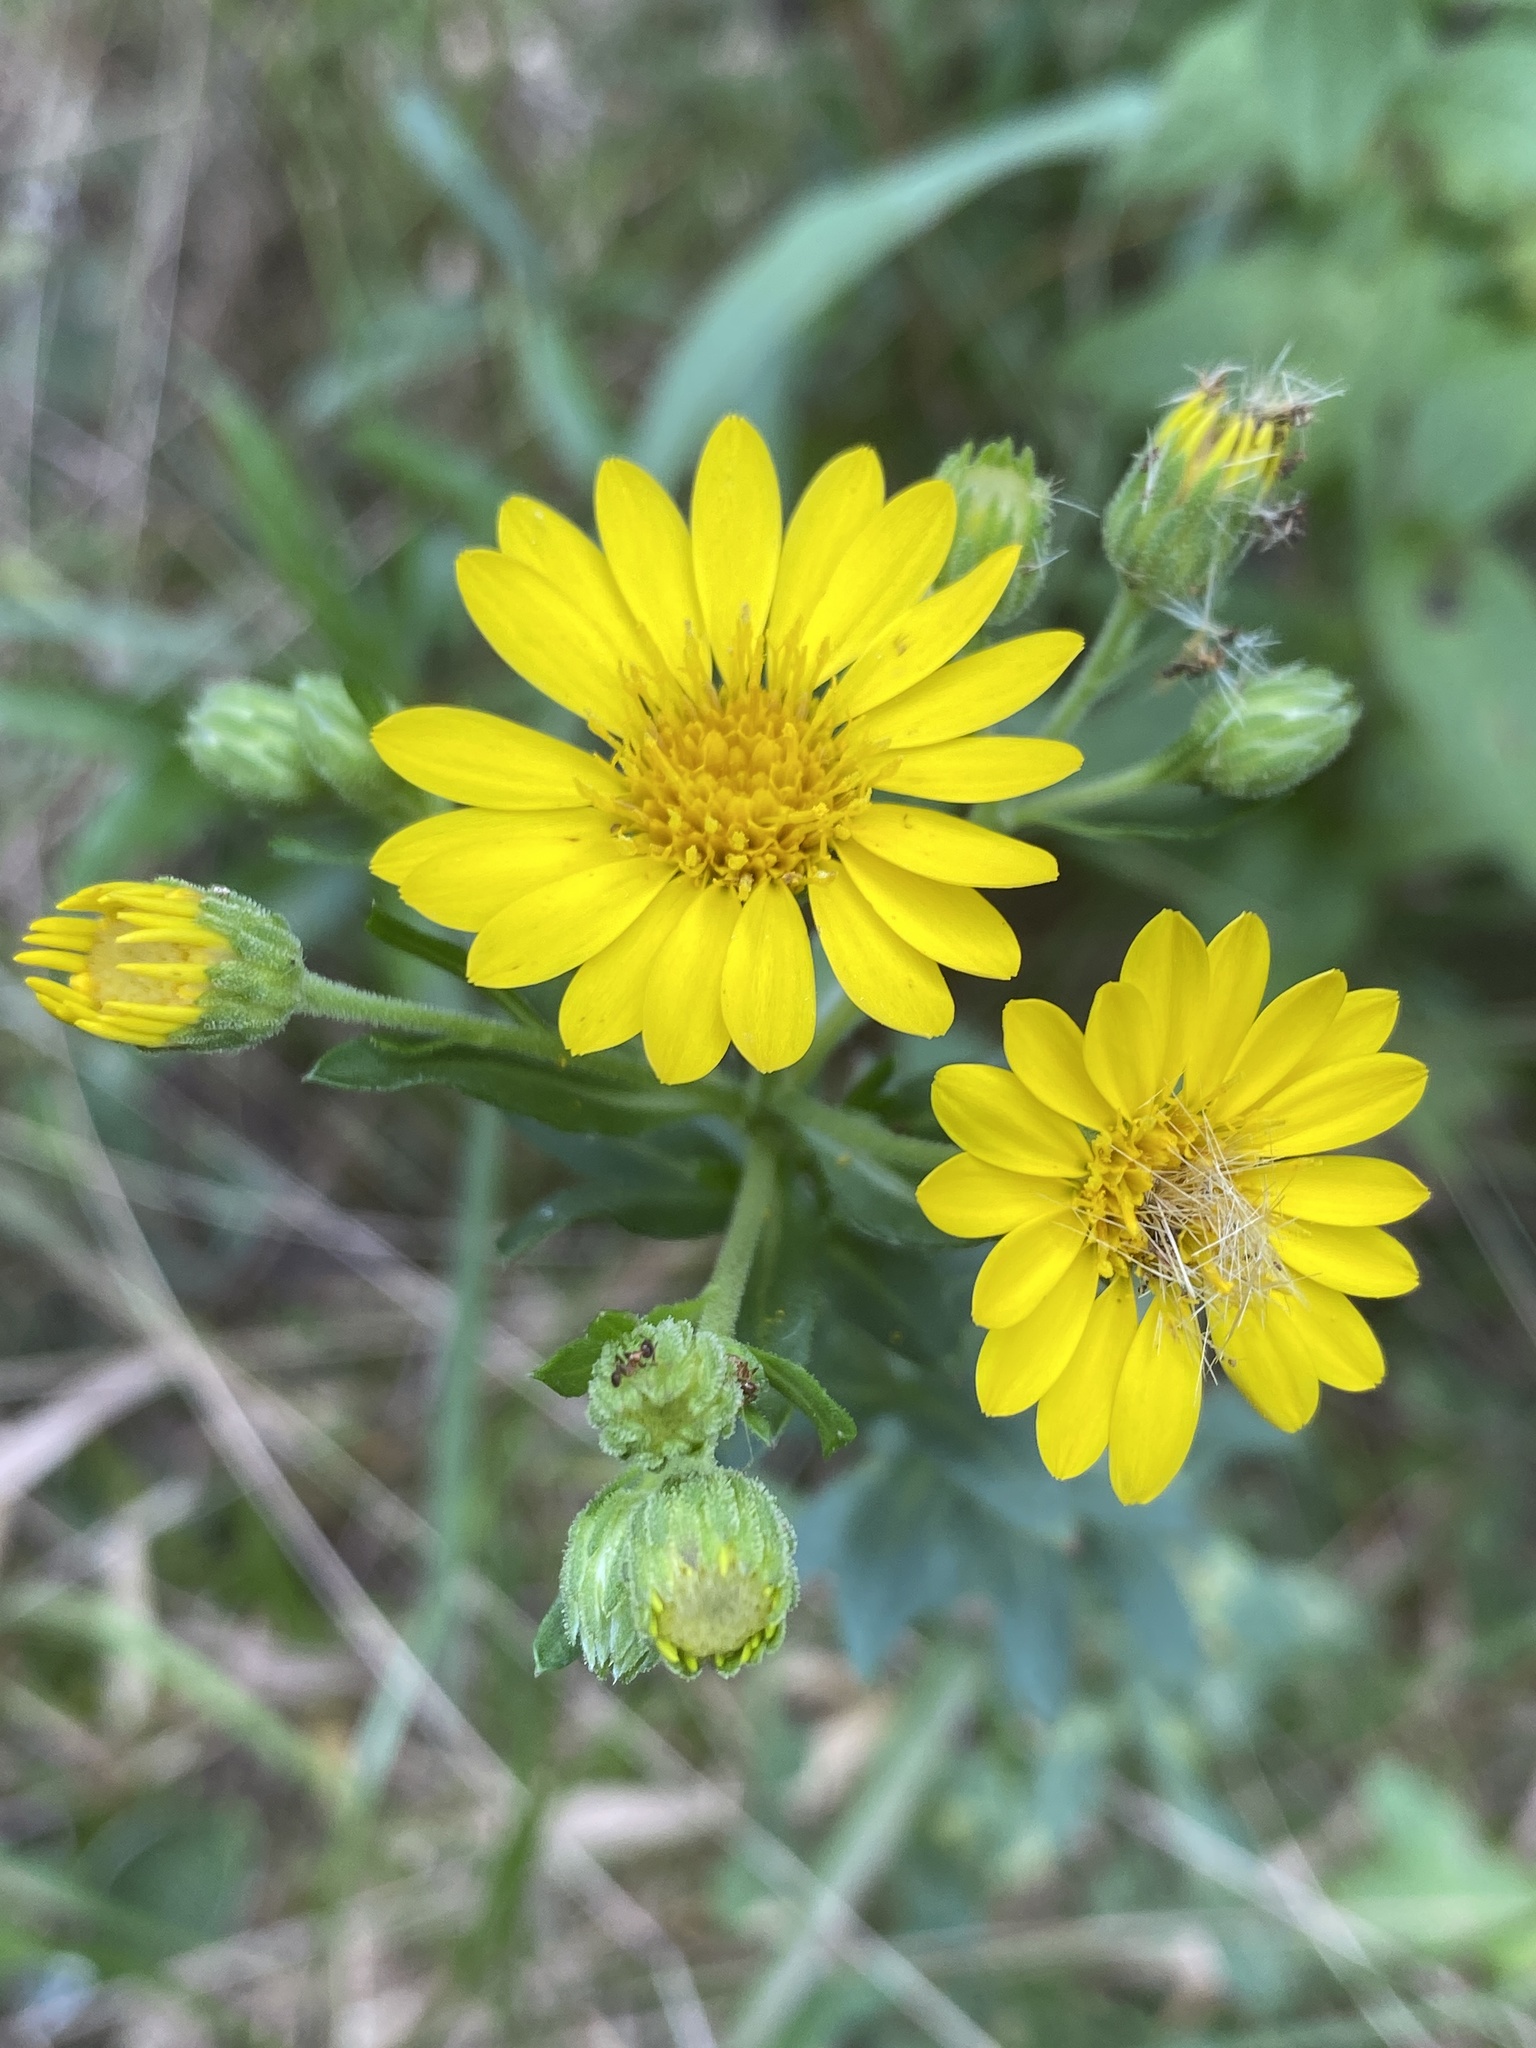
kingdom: Plantae
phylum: Tracheophyta
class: Magnoliopsida
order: Asterales
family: Asteraceae
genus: Chrysopsis
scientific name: Chrysopsis mariana
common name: Maryland golden-aster
